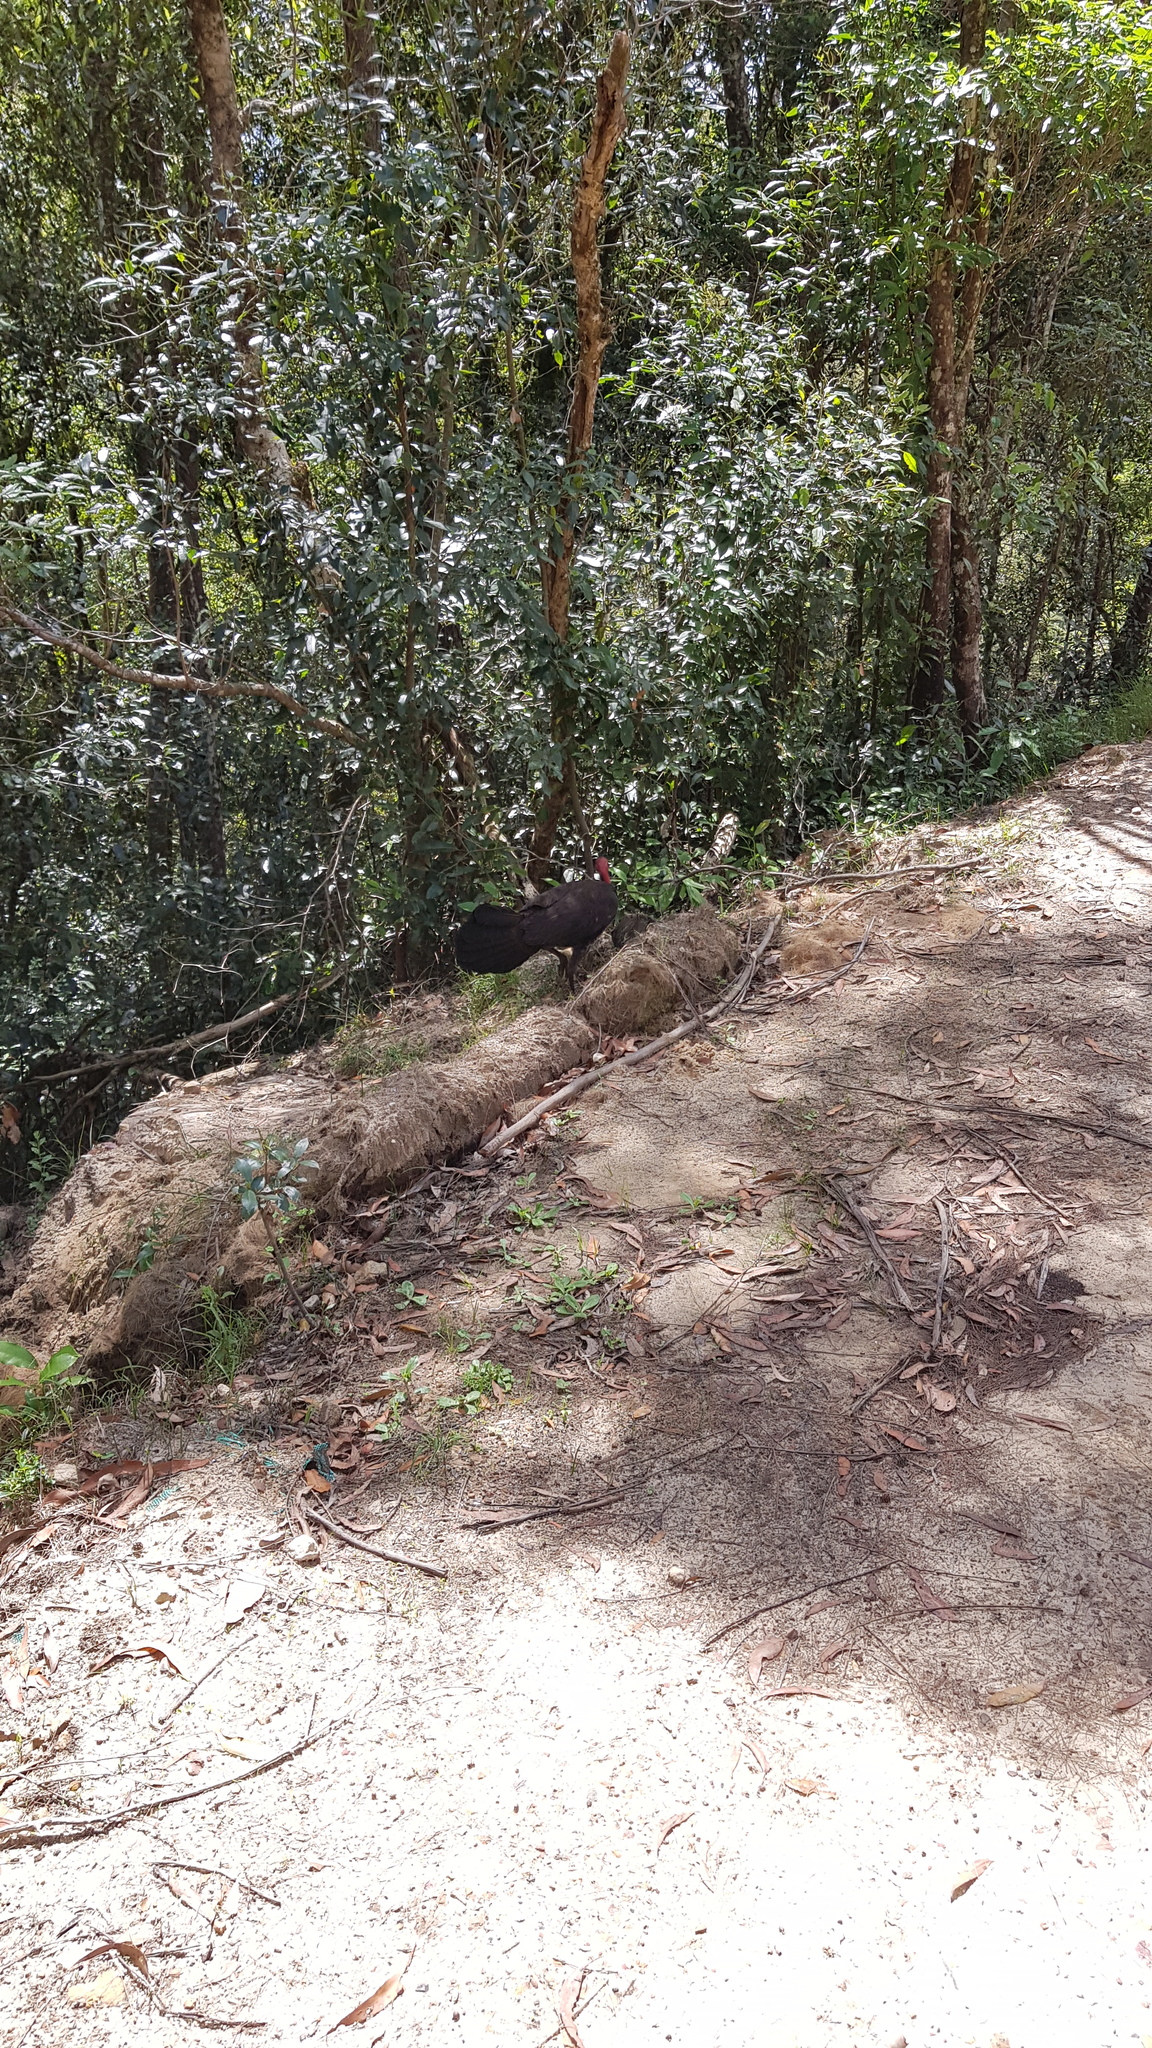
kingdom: Animalia
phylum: Chordata
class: Aves
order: Galliformes
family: Megapodiidae
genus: Alectura
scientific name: Alectura lathami
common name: Australian brushturkey
